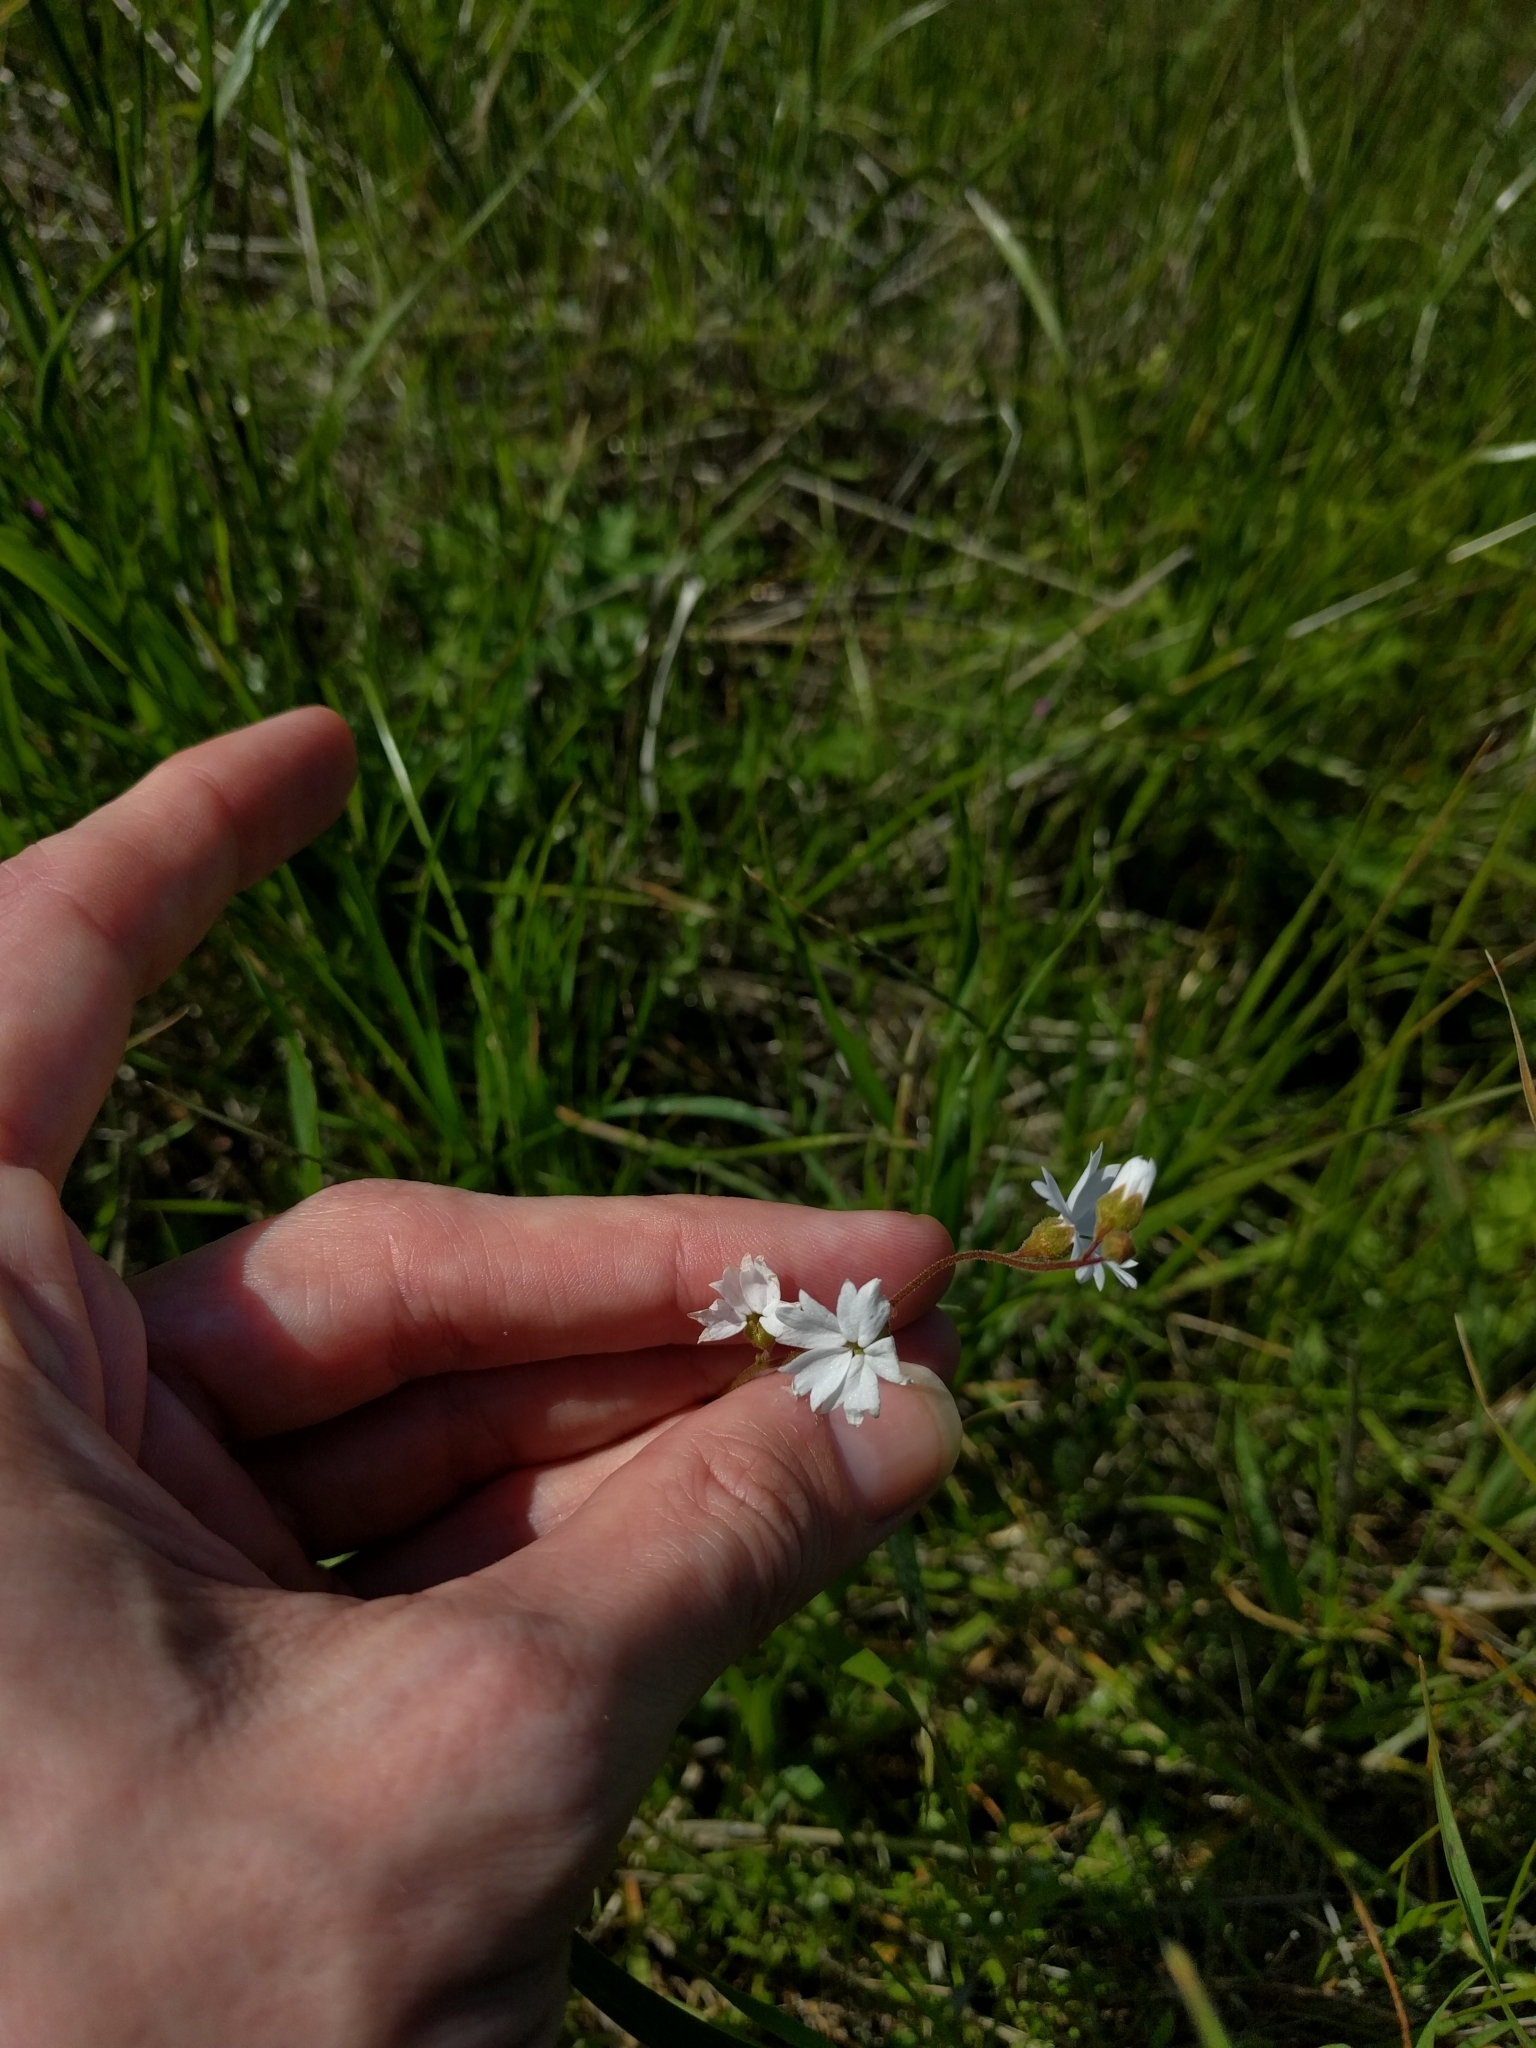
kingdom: Plantae
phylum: Tracheophyta
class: Magnoliopsida
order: Saxifragales
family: Saxifragaceae
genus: Lithophragma
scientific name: Lithophragma affine
